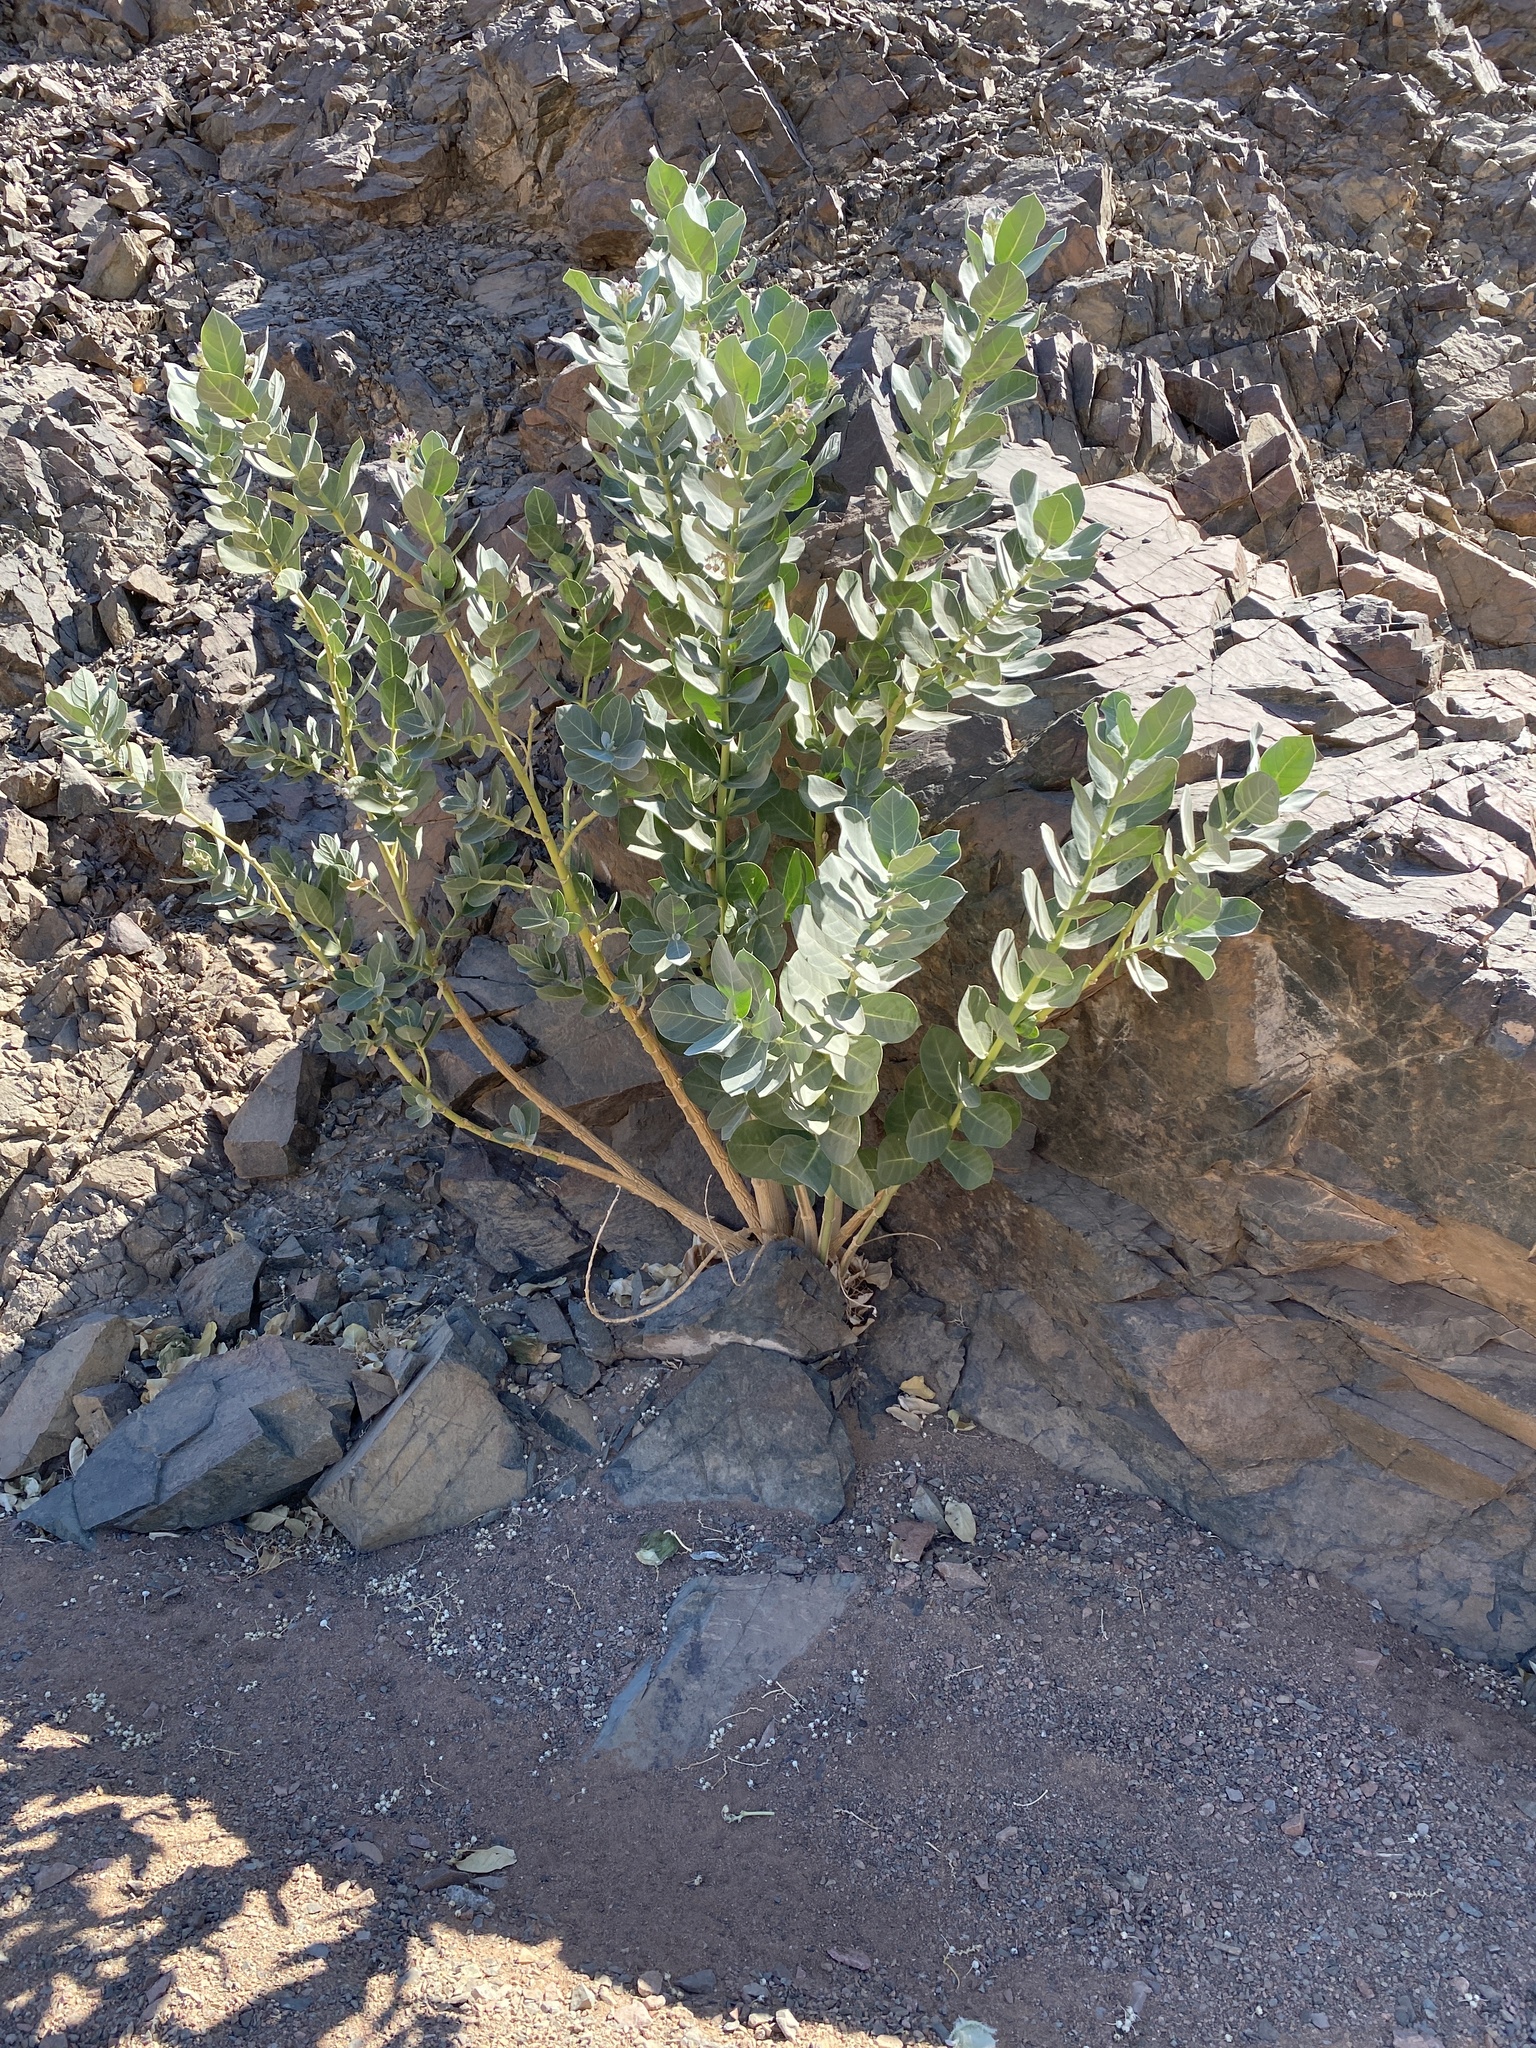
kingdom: Plantae
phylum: Tracheophyta
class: Magnoliopsida
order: Gentianales
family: Apocynaceae
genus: Calotropis
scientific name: Calotropis procera
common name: Roostertree
